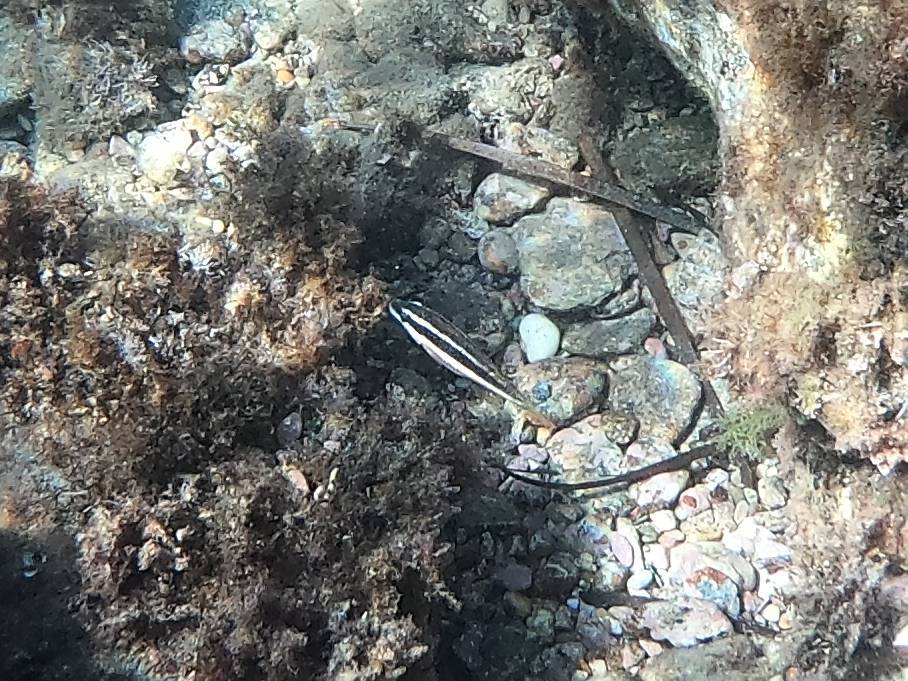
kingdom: Animalia
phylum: Chordata
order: Perciformes
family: Labridae
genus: Symphodus
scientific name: Symphodus doderleini
